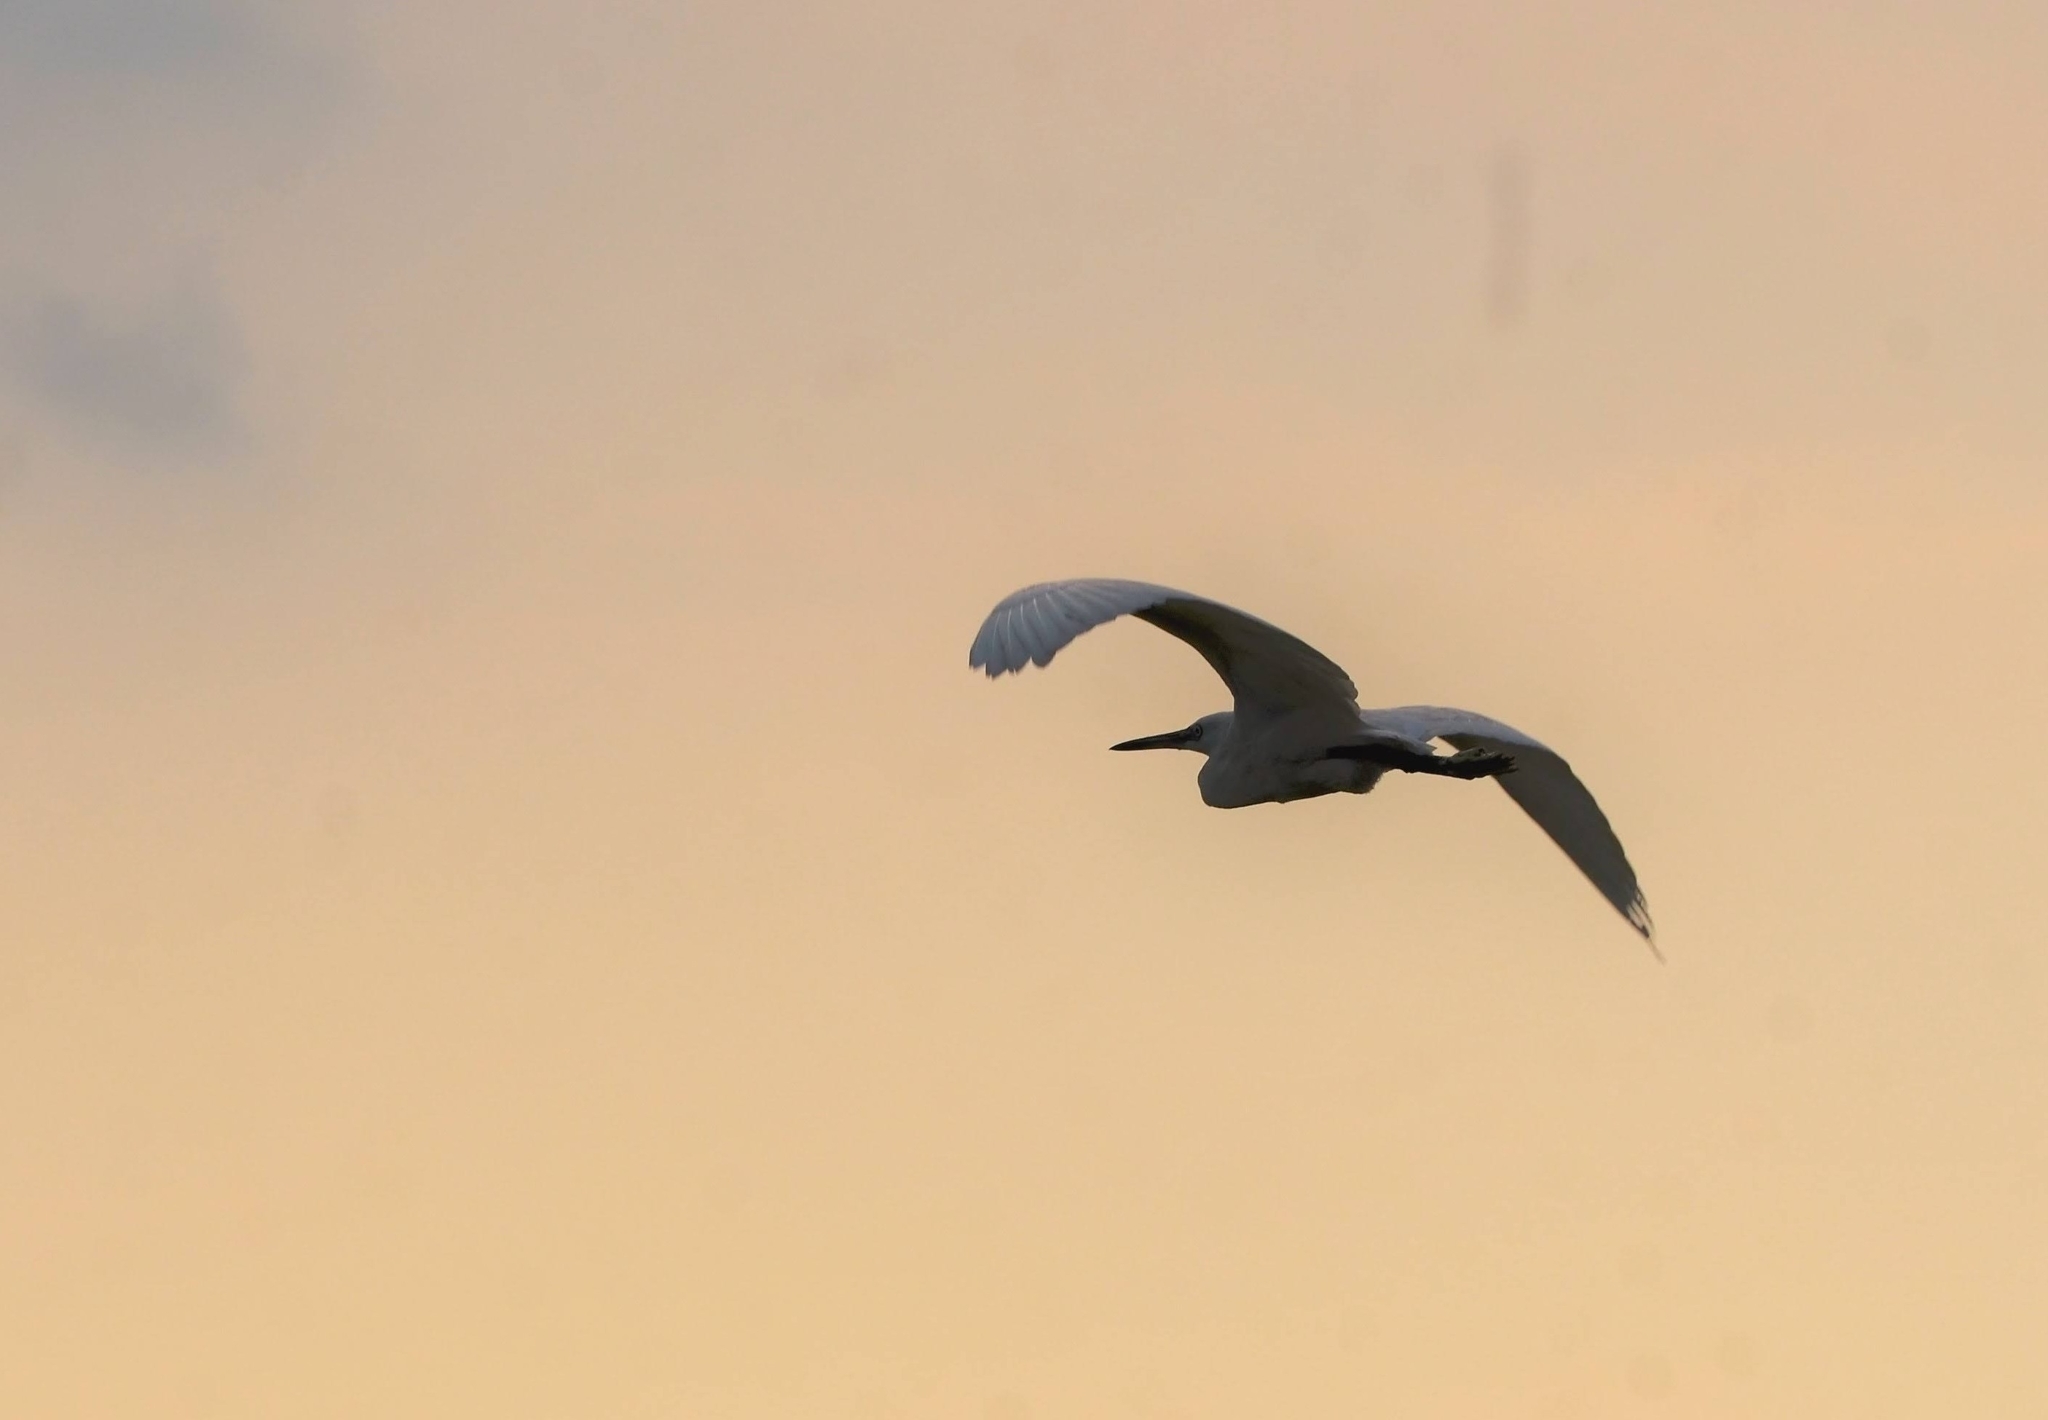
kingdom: Animalia
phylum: Chordata
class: Aves
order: Pelecaniformes
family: Ardeidae
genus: Egretta
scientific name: Egretta intermedia
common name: Intermediate egret
